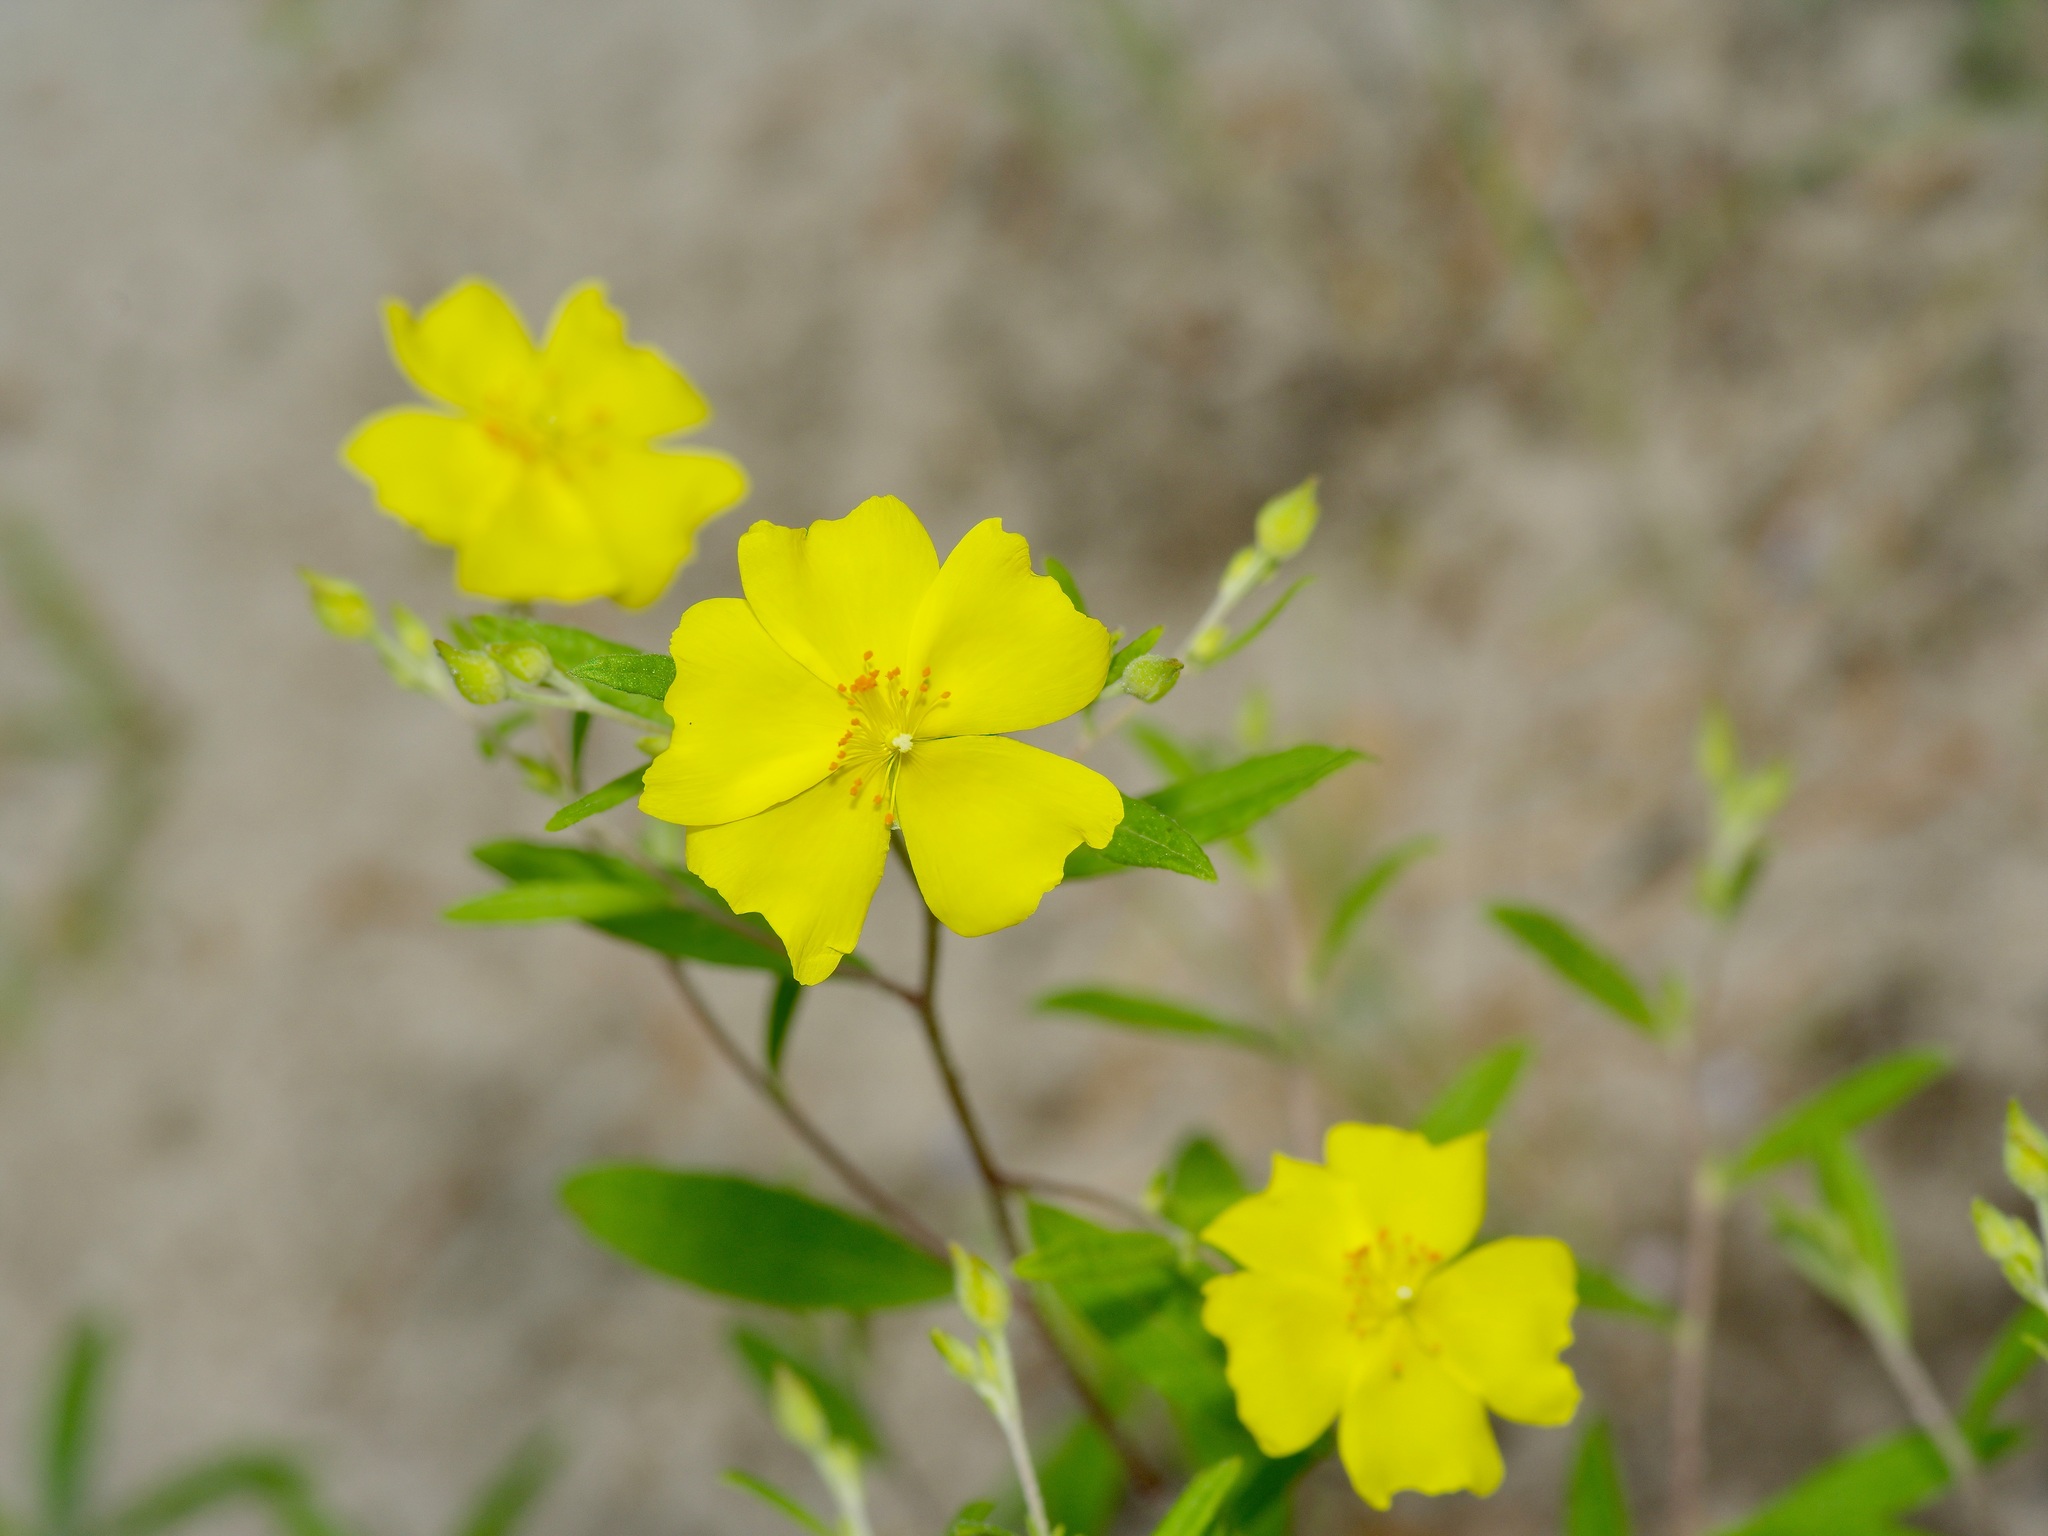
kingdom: Plantae
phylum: Tracheophyta
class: Magnoliopsida
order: Malvales
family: Cistaceae
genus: Crocanthemum
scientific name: Crocanthemum georgianum
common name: Georgia frostweed
